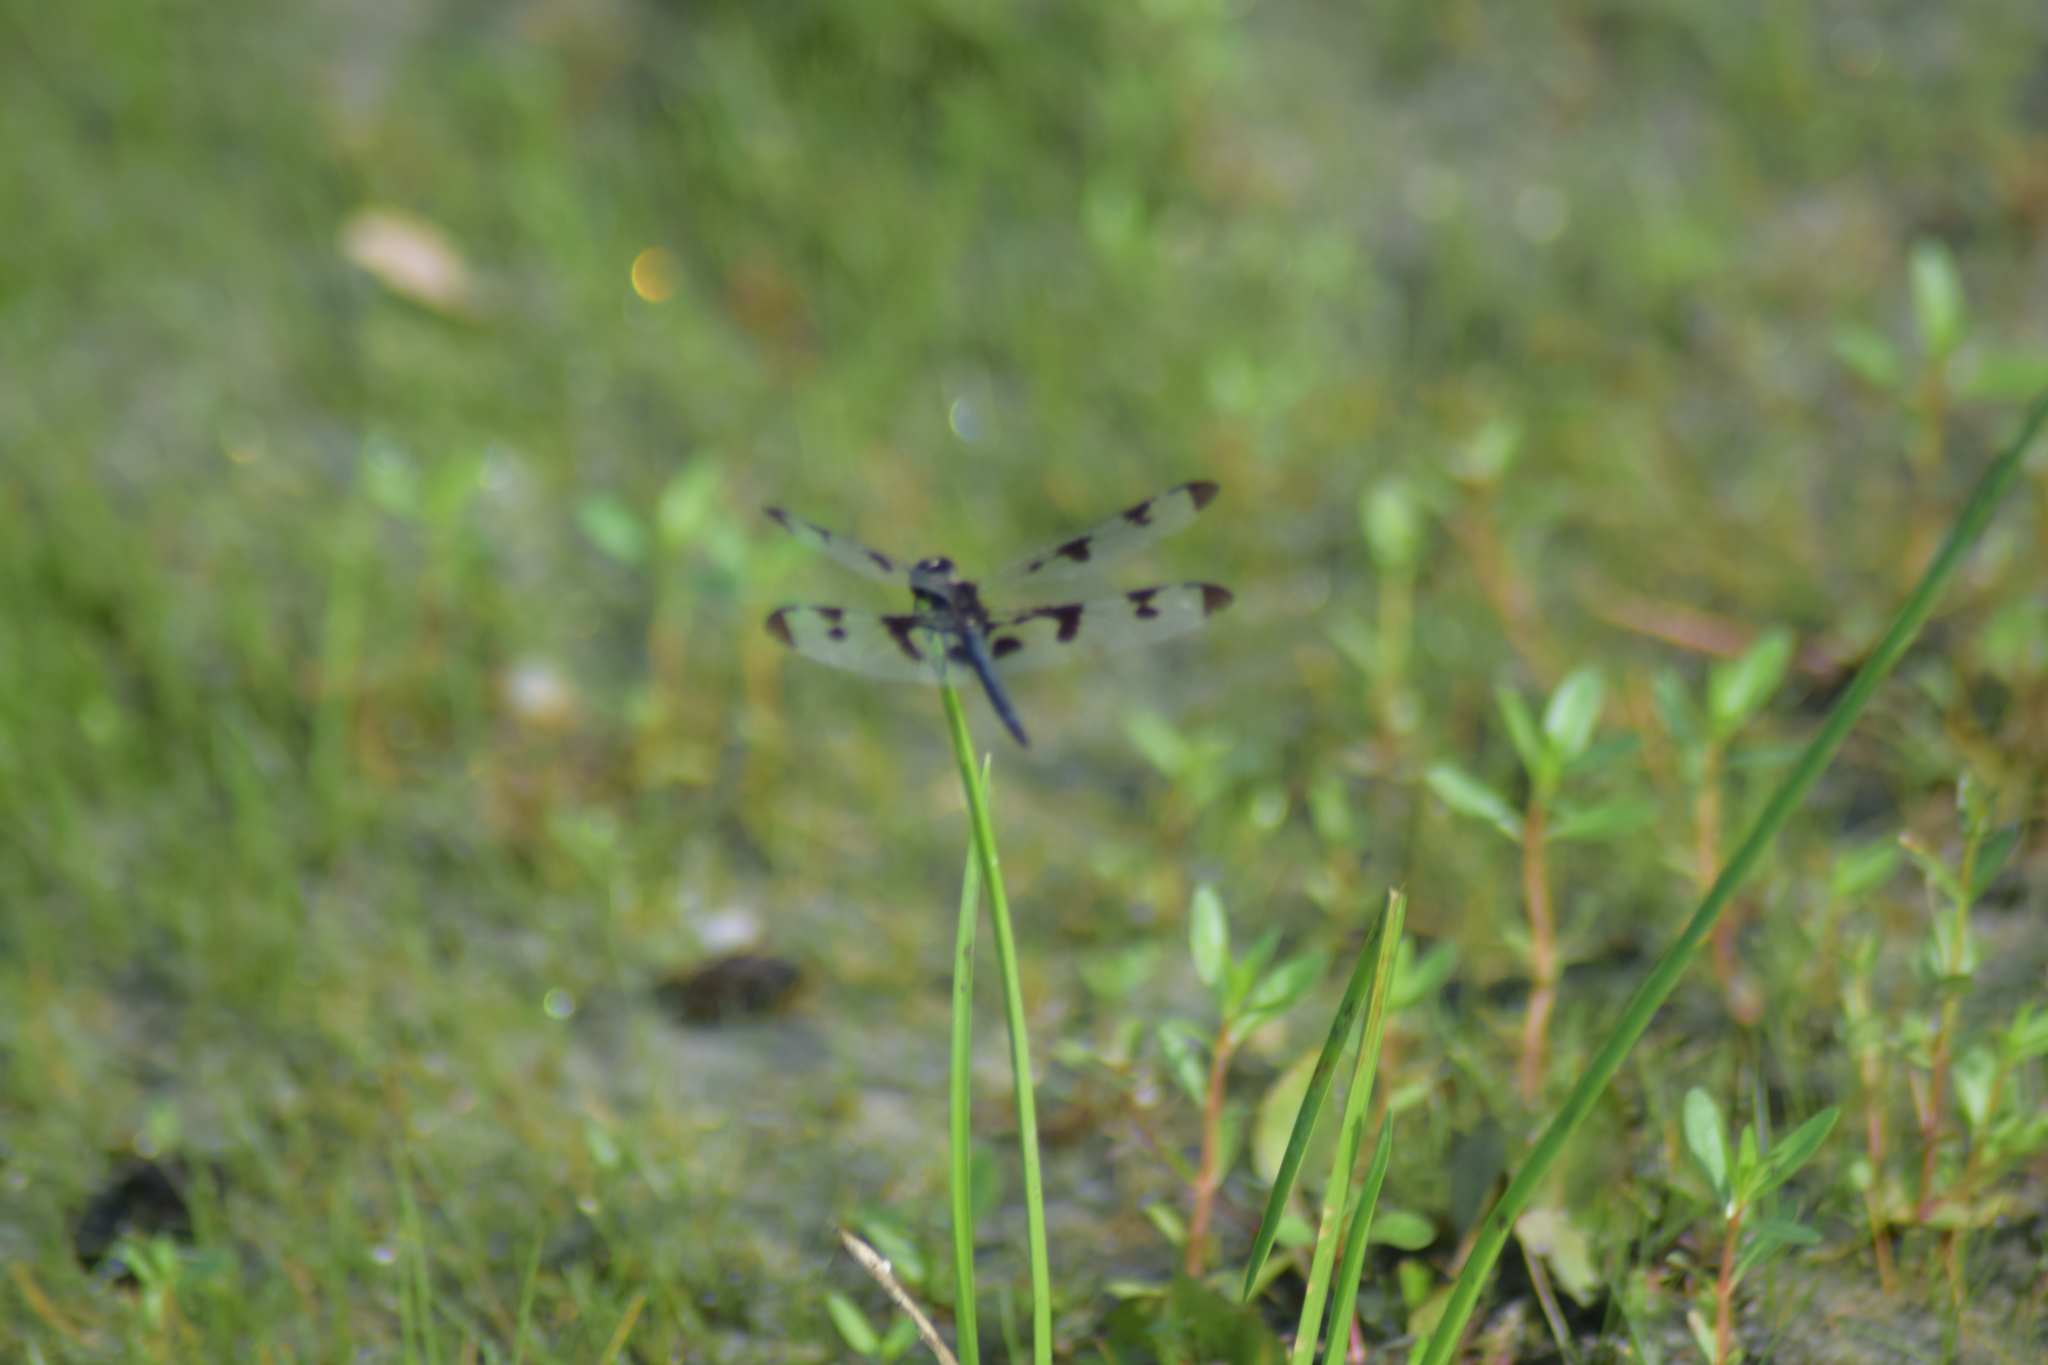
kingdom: Animalia
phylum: Arthropoda
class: Insecta
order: Odonata
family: Libellulidae
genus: Celithemis
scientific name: Celithemis fasciata
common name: Banded pennant
